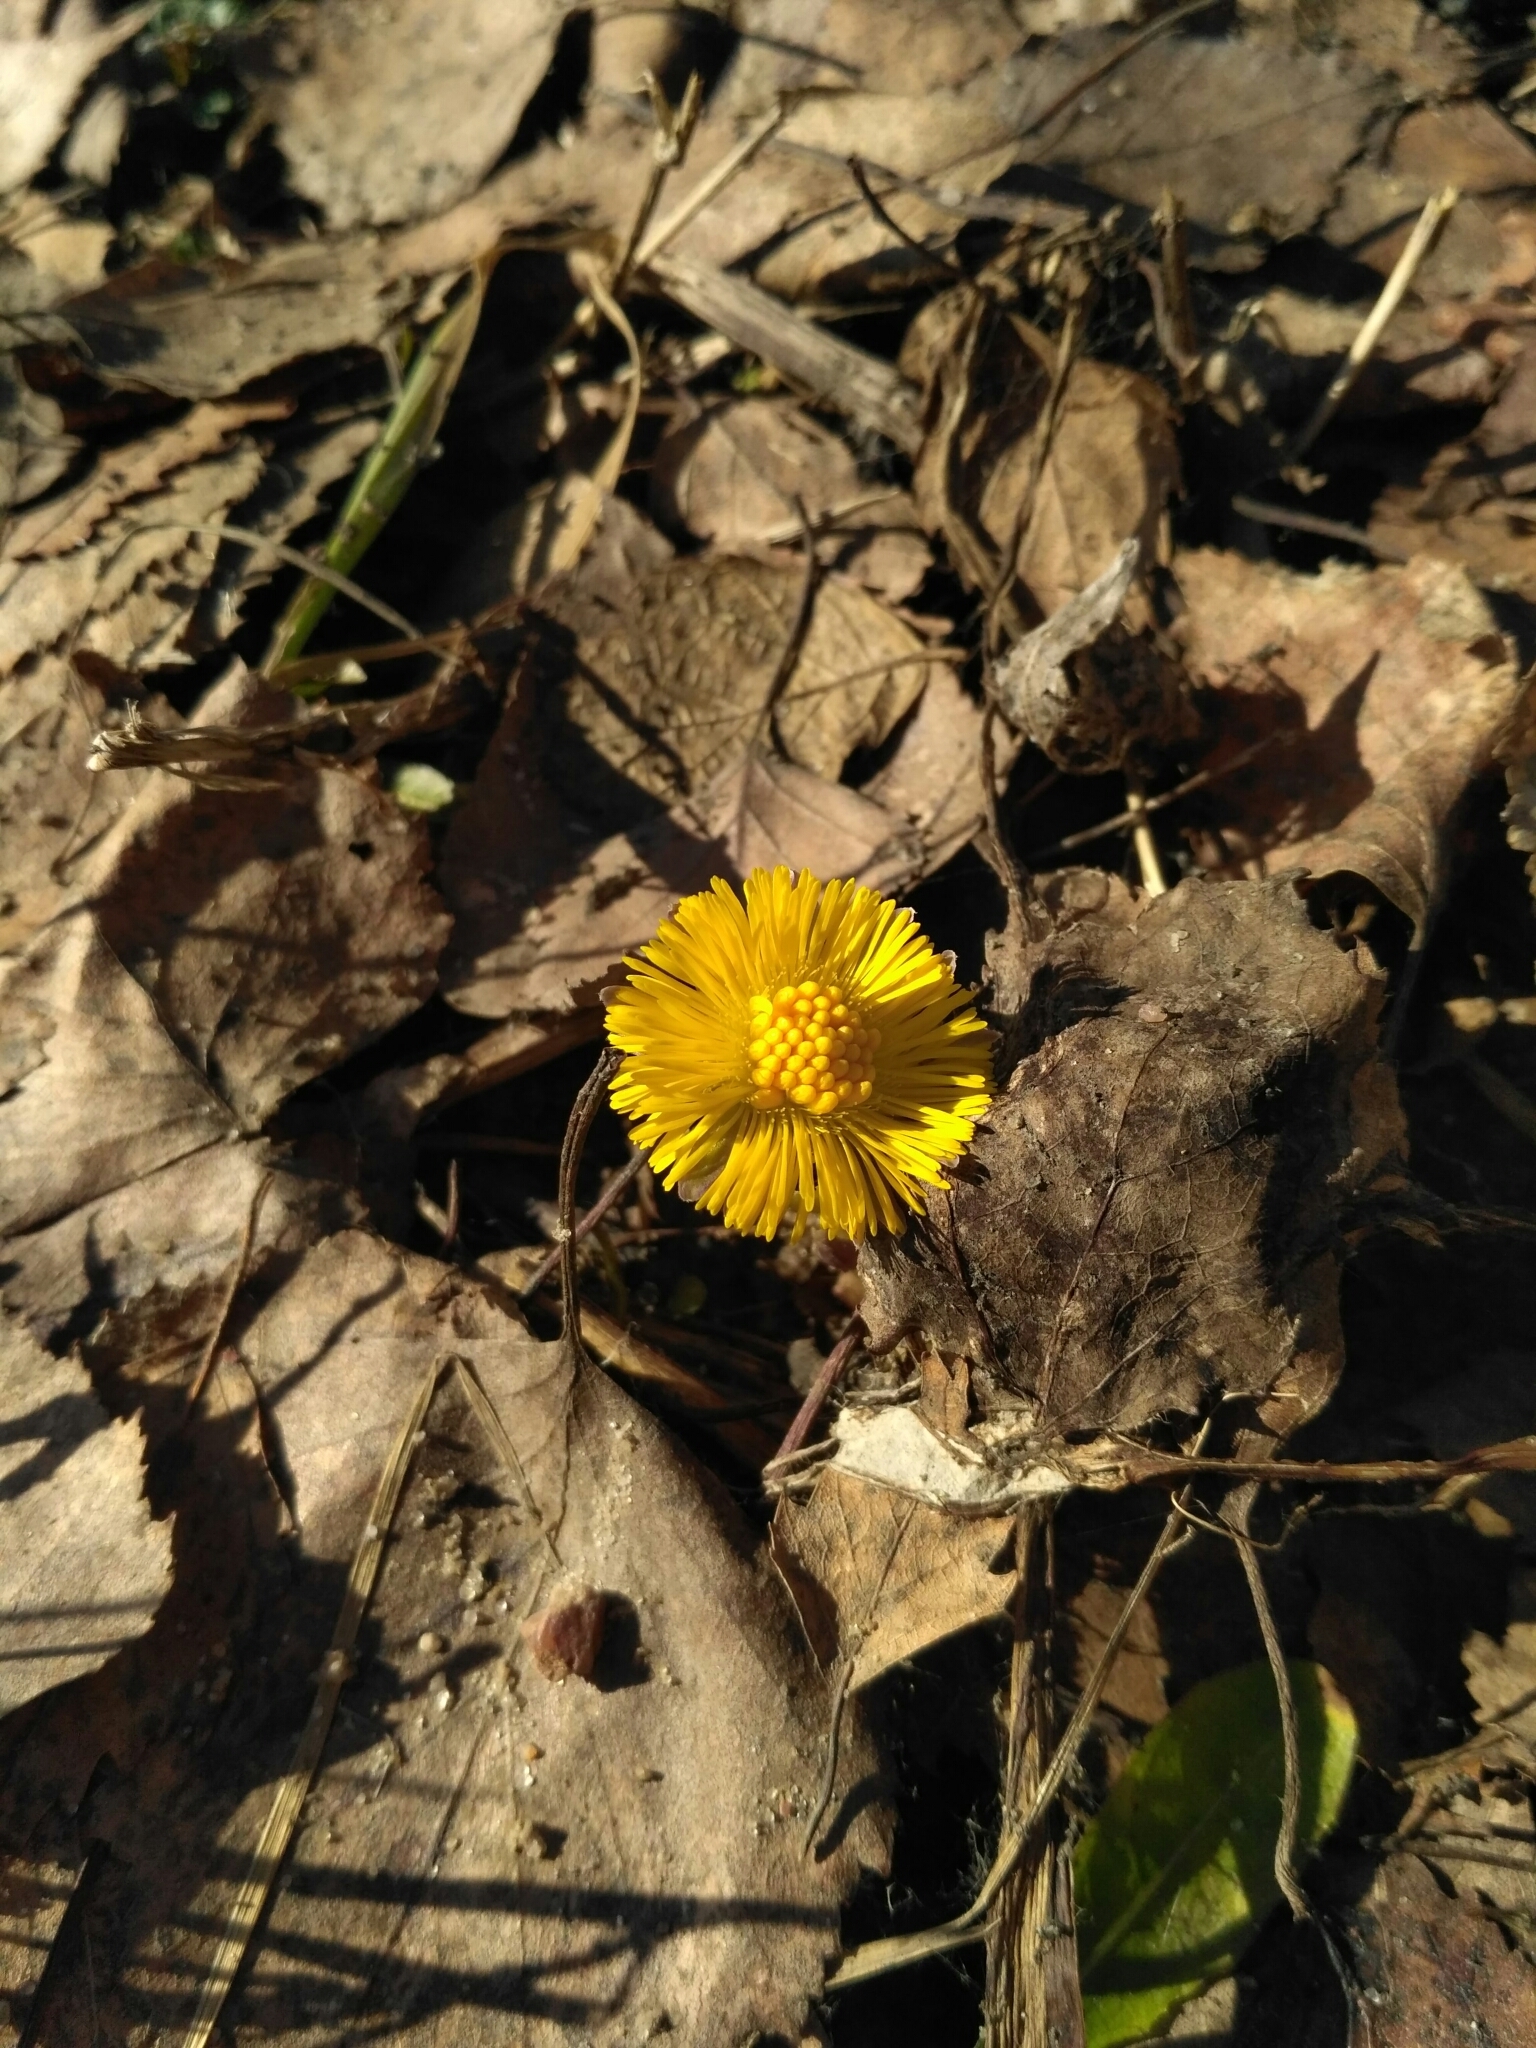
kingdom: Plantae
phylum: Tracheophyta
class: Magnoliopsida
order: Asterales
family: Asteraceae
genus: Tussilago
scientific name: Tussilago farfara
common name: Coltsfoot
